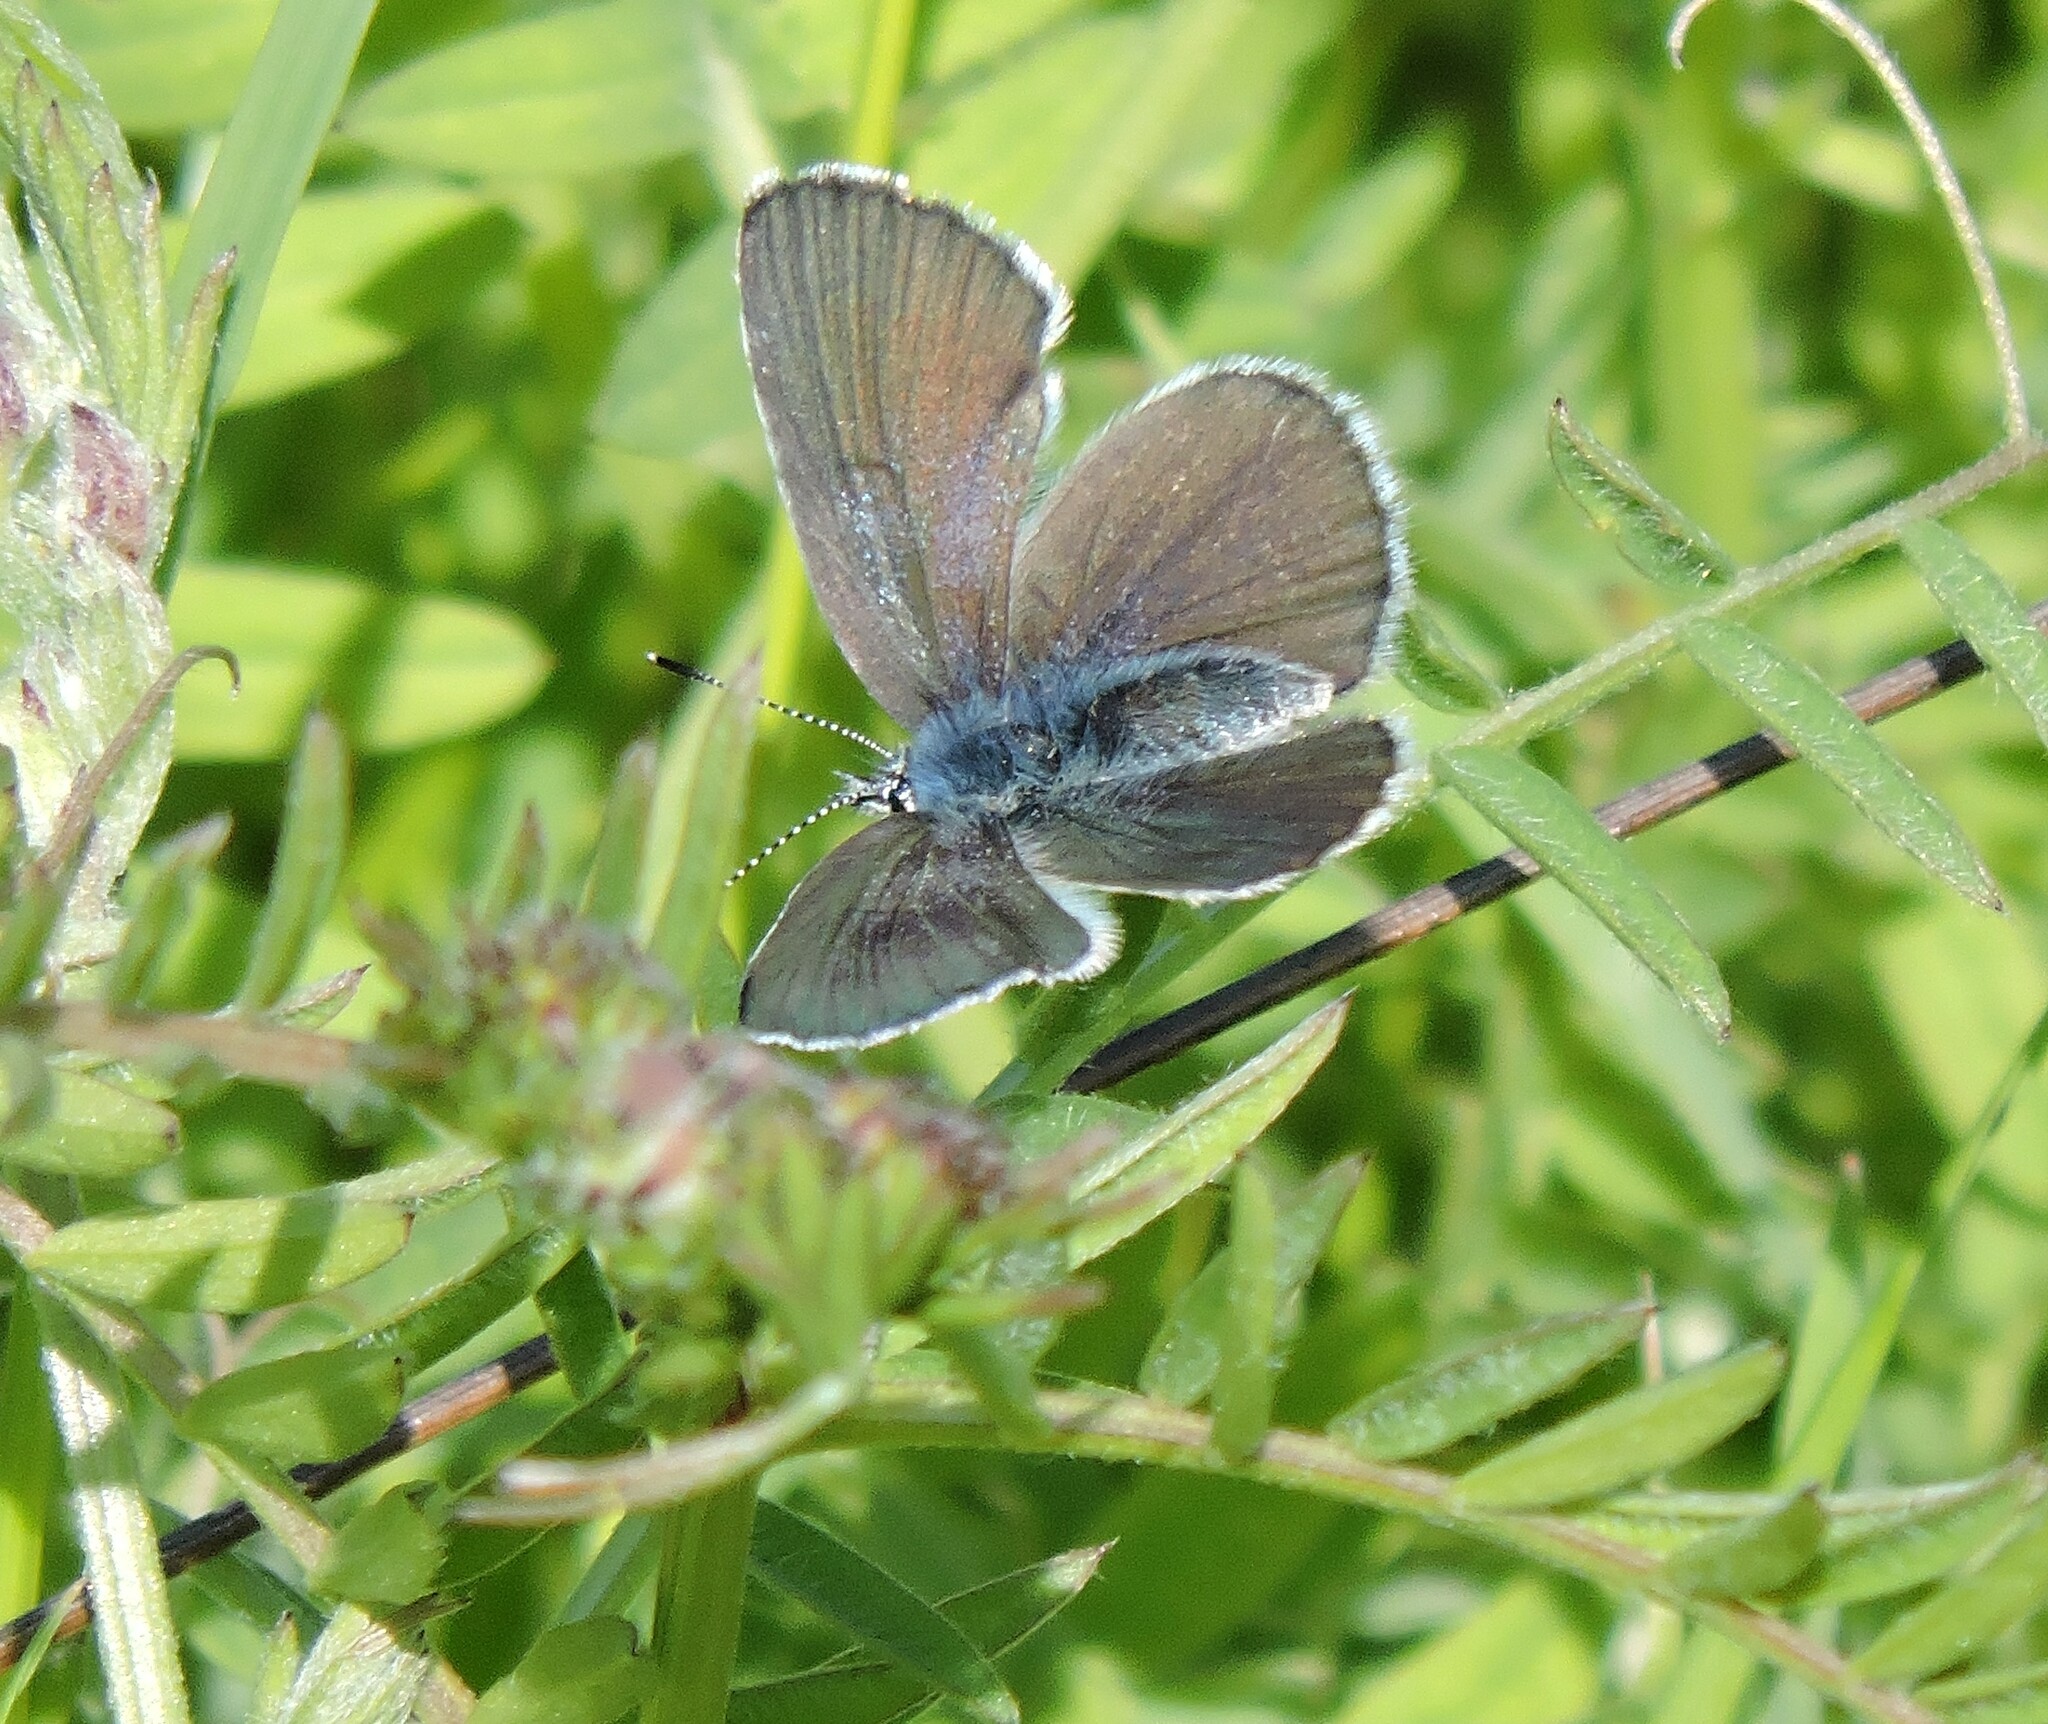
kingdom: Animalia
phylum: Arthropoda
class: Insecta
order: Lepidoptera
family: Lycaenidae
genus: Glaucopsyche
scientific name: Glaucopsyche lygdamus
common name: Silvery blue
